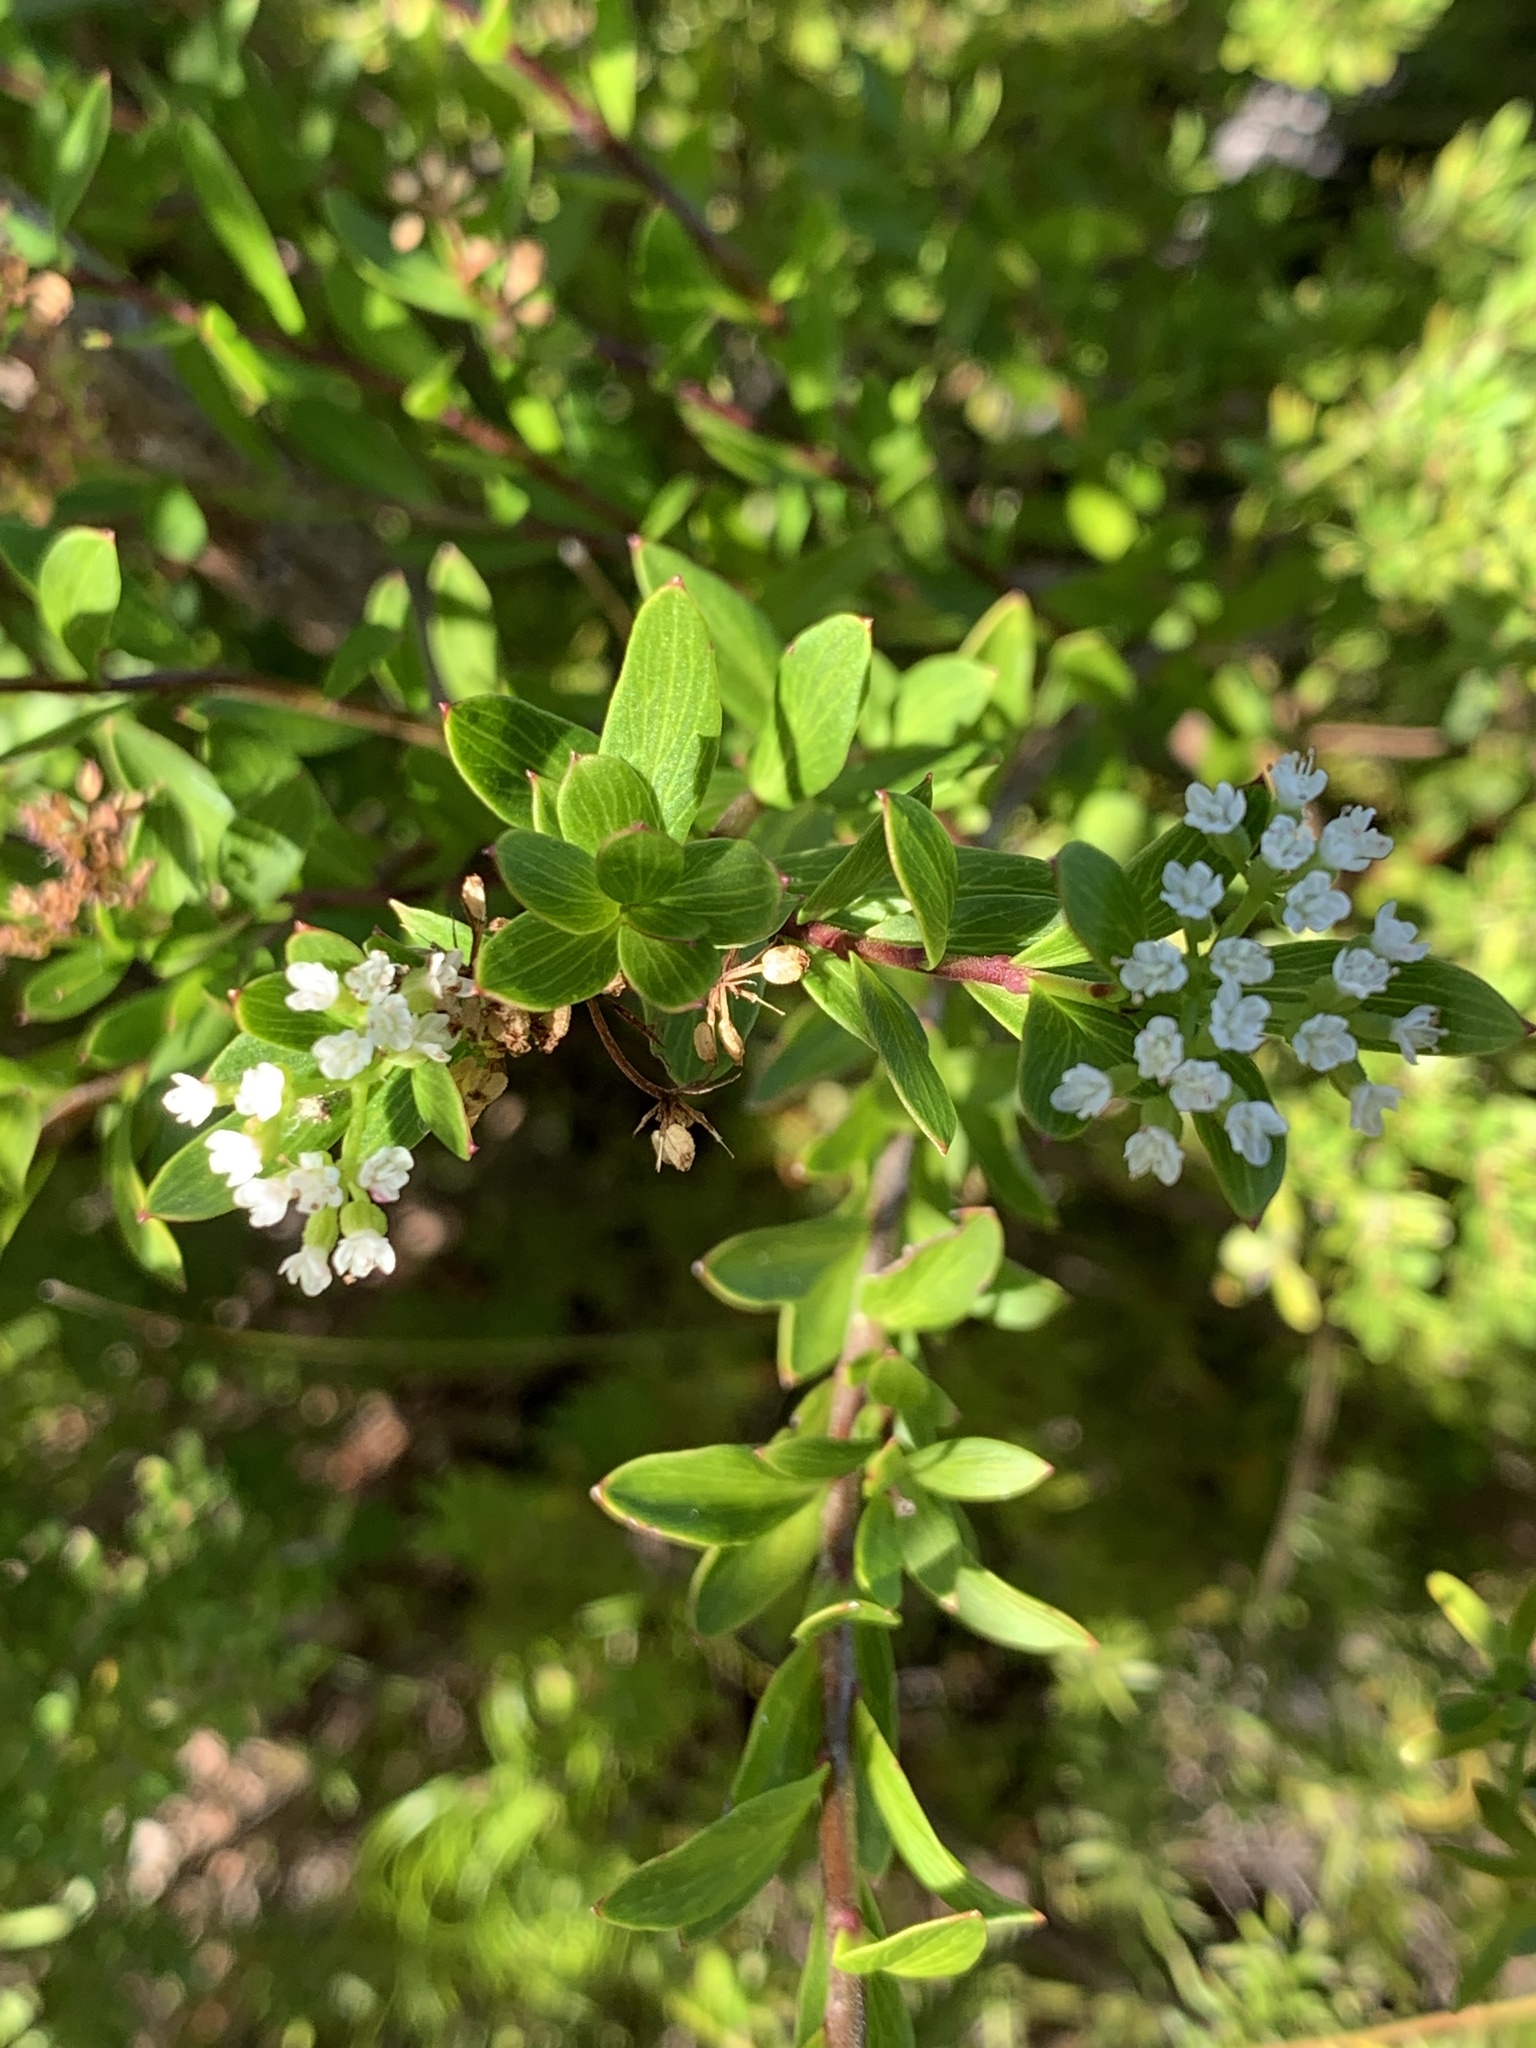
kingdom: Plantae
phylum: Tracheophyta
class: Magnoliopsida
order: Apiales
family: Apiaceae
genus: Platysace
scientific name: Platysace lanceolata
